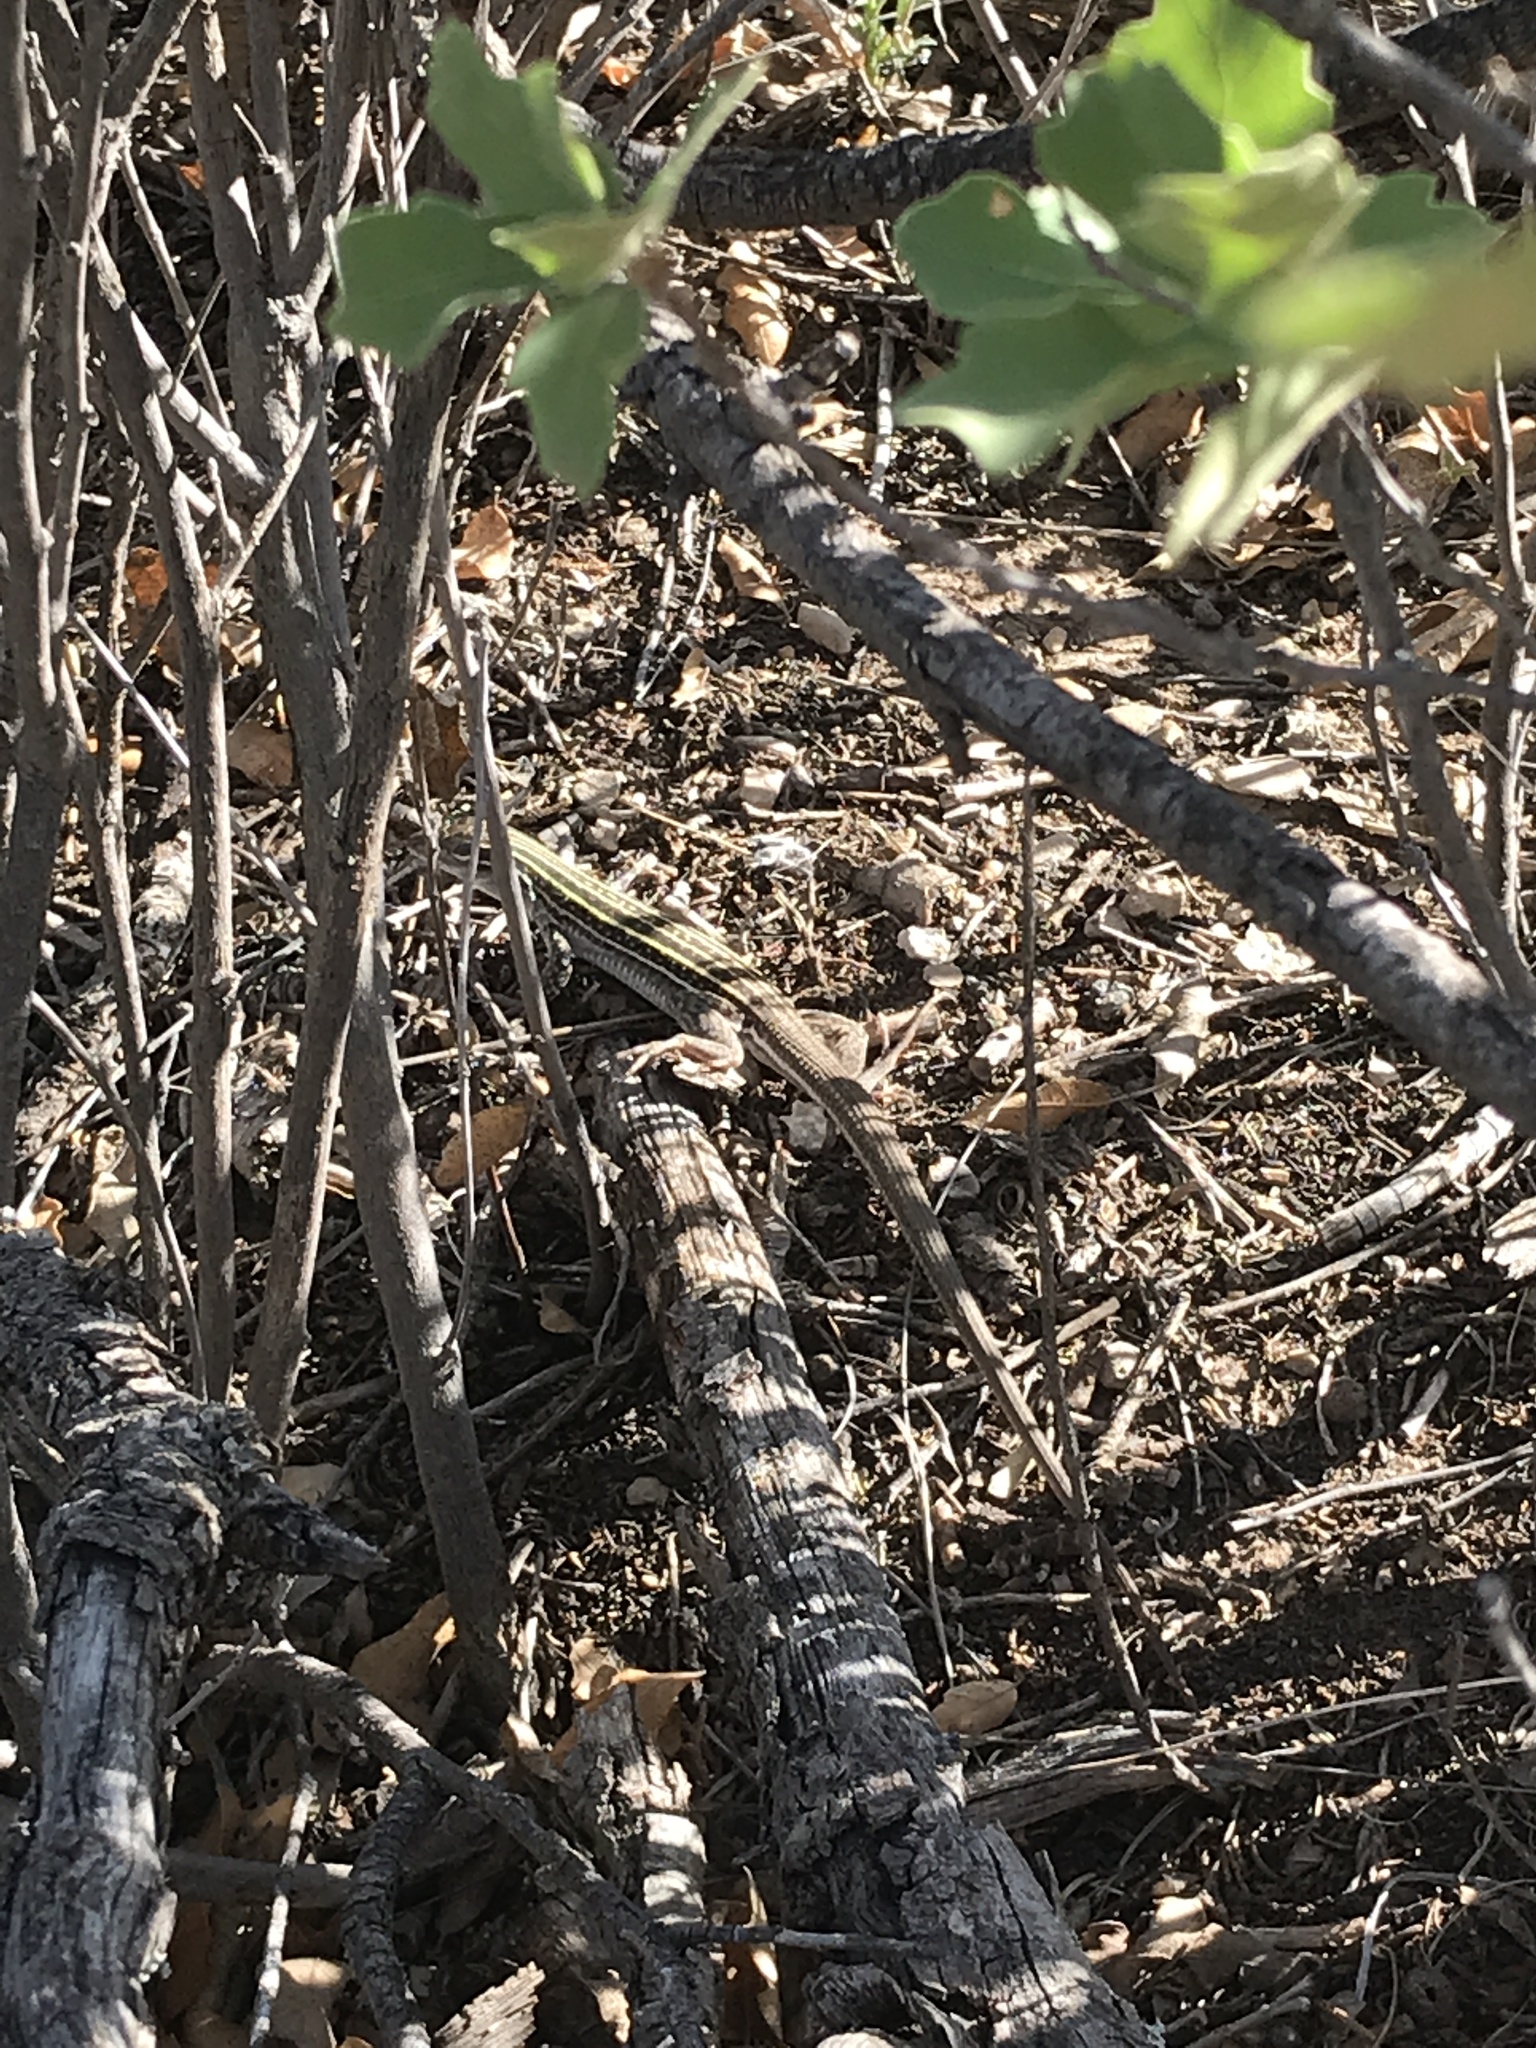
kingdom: Animalia
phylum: Chordata
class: Squamata
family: Teiidae
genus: Aspidoscelis
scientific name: Aspidoscelis exsanguis
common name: Chihuahuan spotted whiptail
